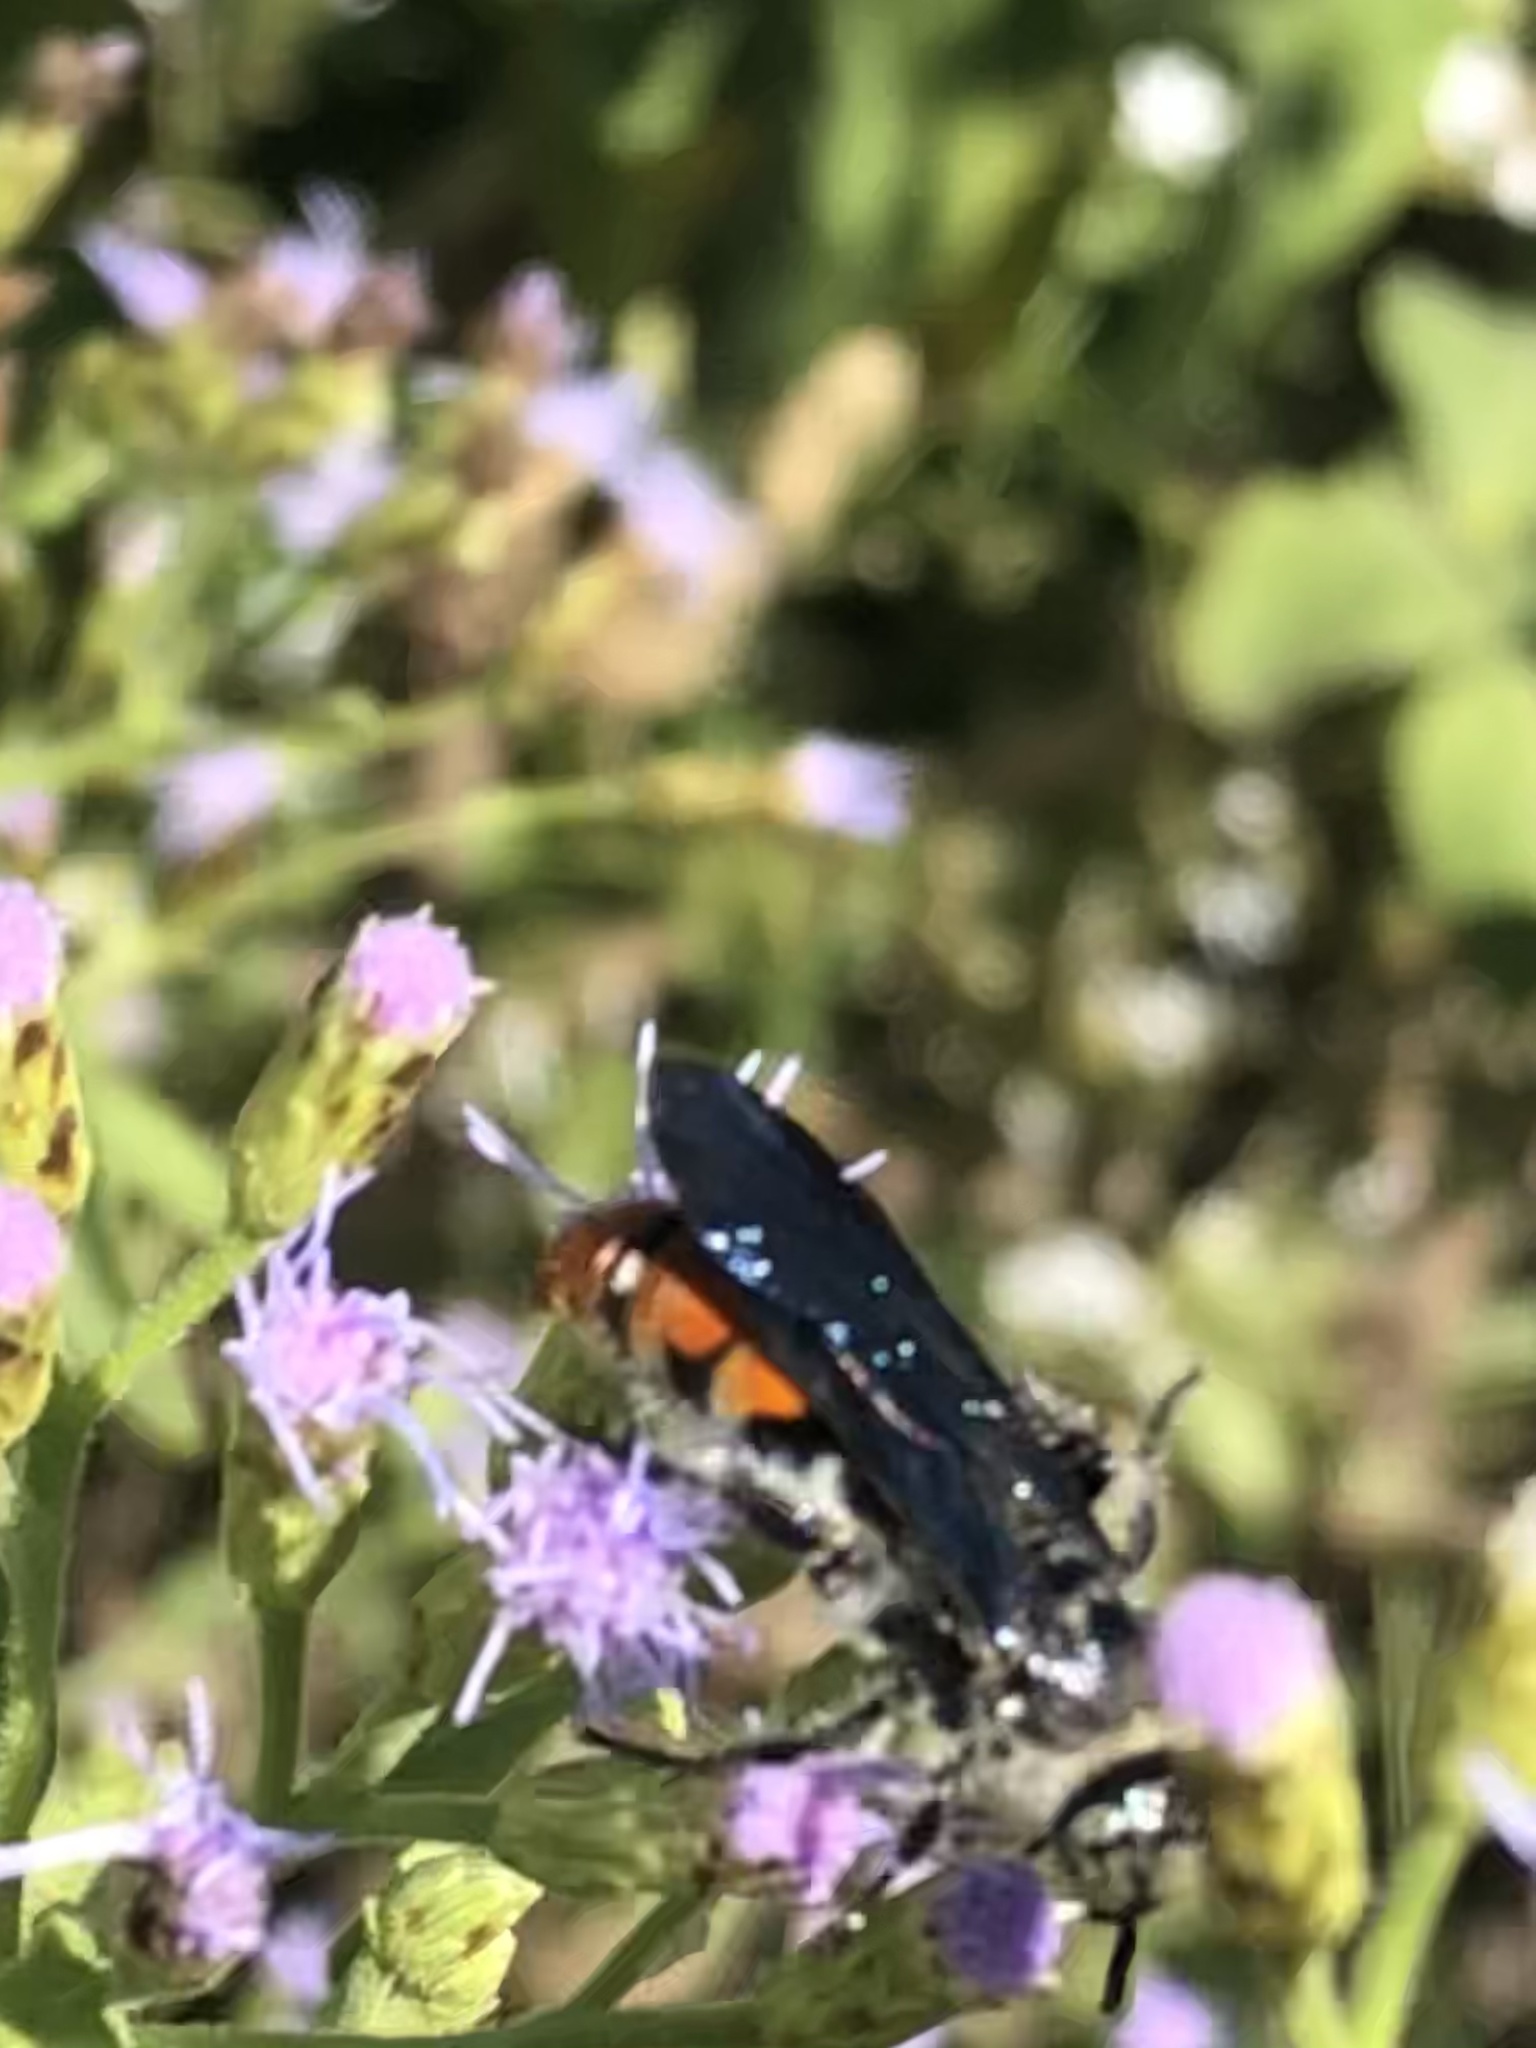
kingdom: Animalia
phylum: Arthropoda
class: Insecta
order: Hymenoptera
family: Scoliidae
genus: Dielis
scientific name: Dielis tolteca
